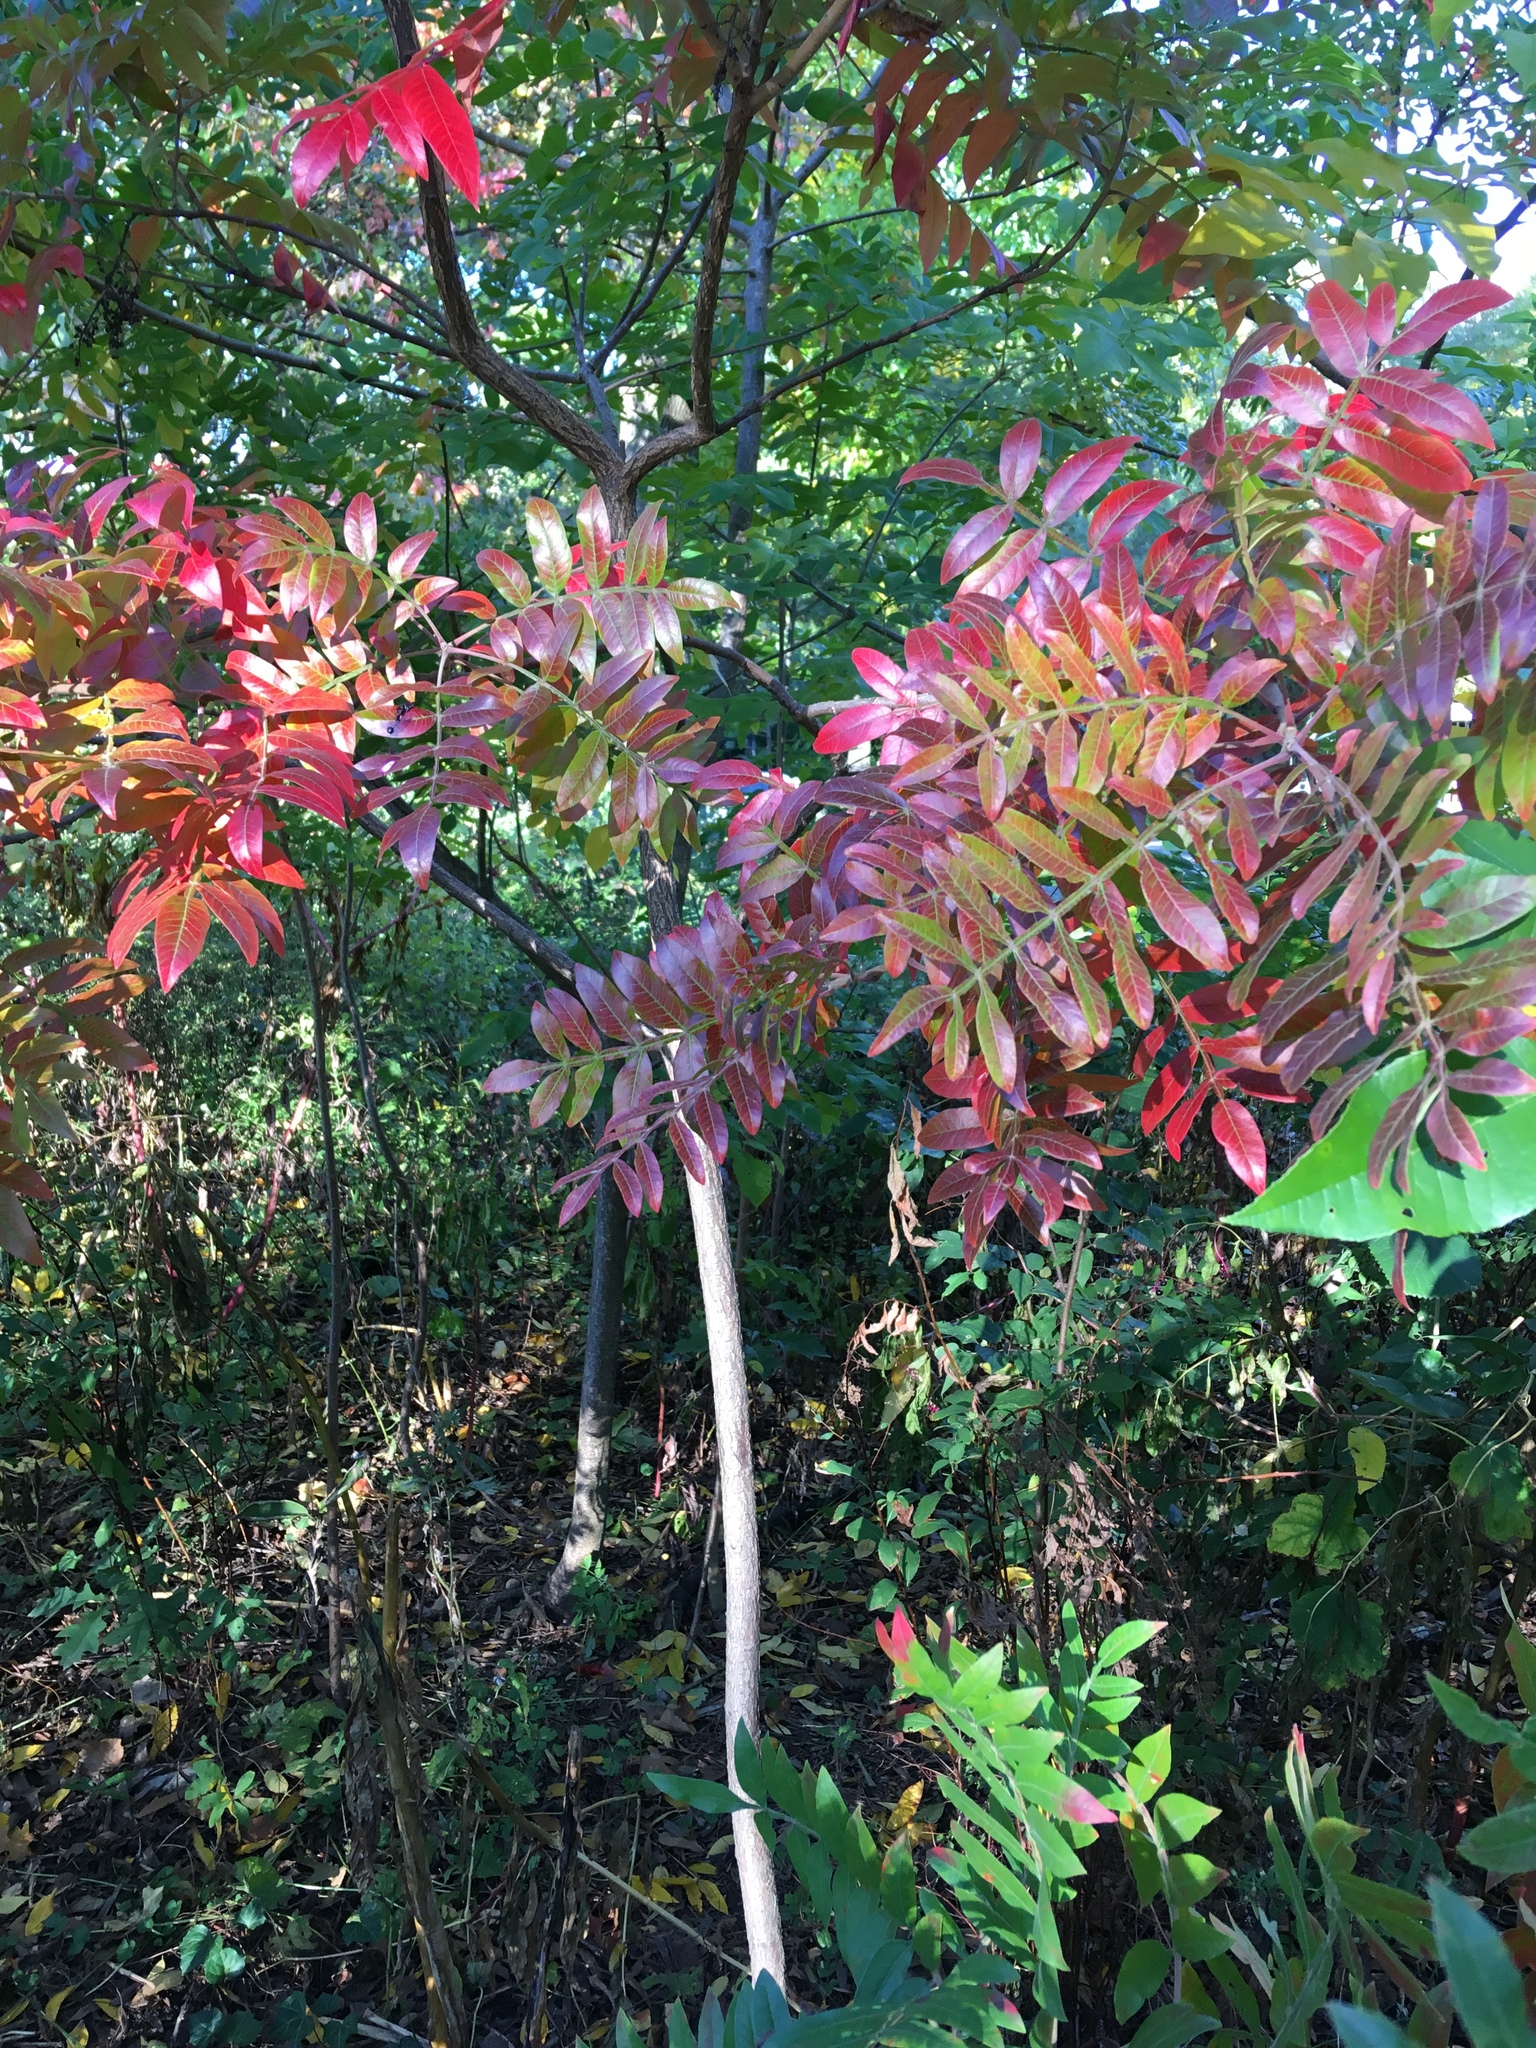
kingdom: Plantae
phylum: Tracheophyta
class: Magnoliopsida
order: Sapindales
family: Anacardiaceae
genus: Rhus
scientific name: Rhus copallina
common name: Shining sumac
